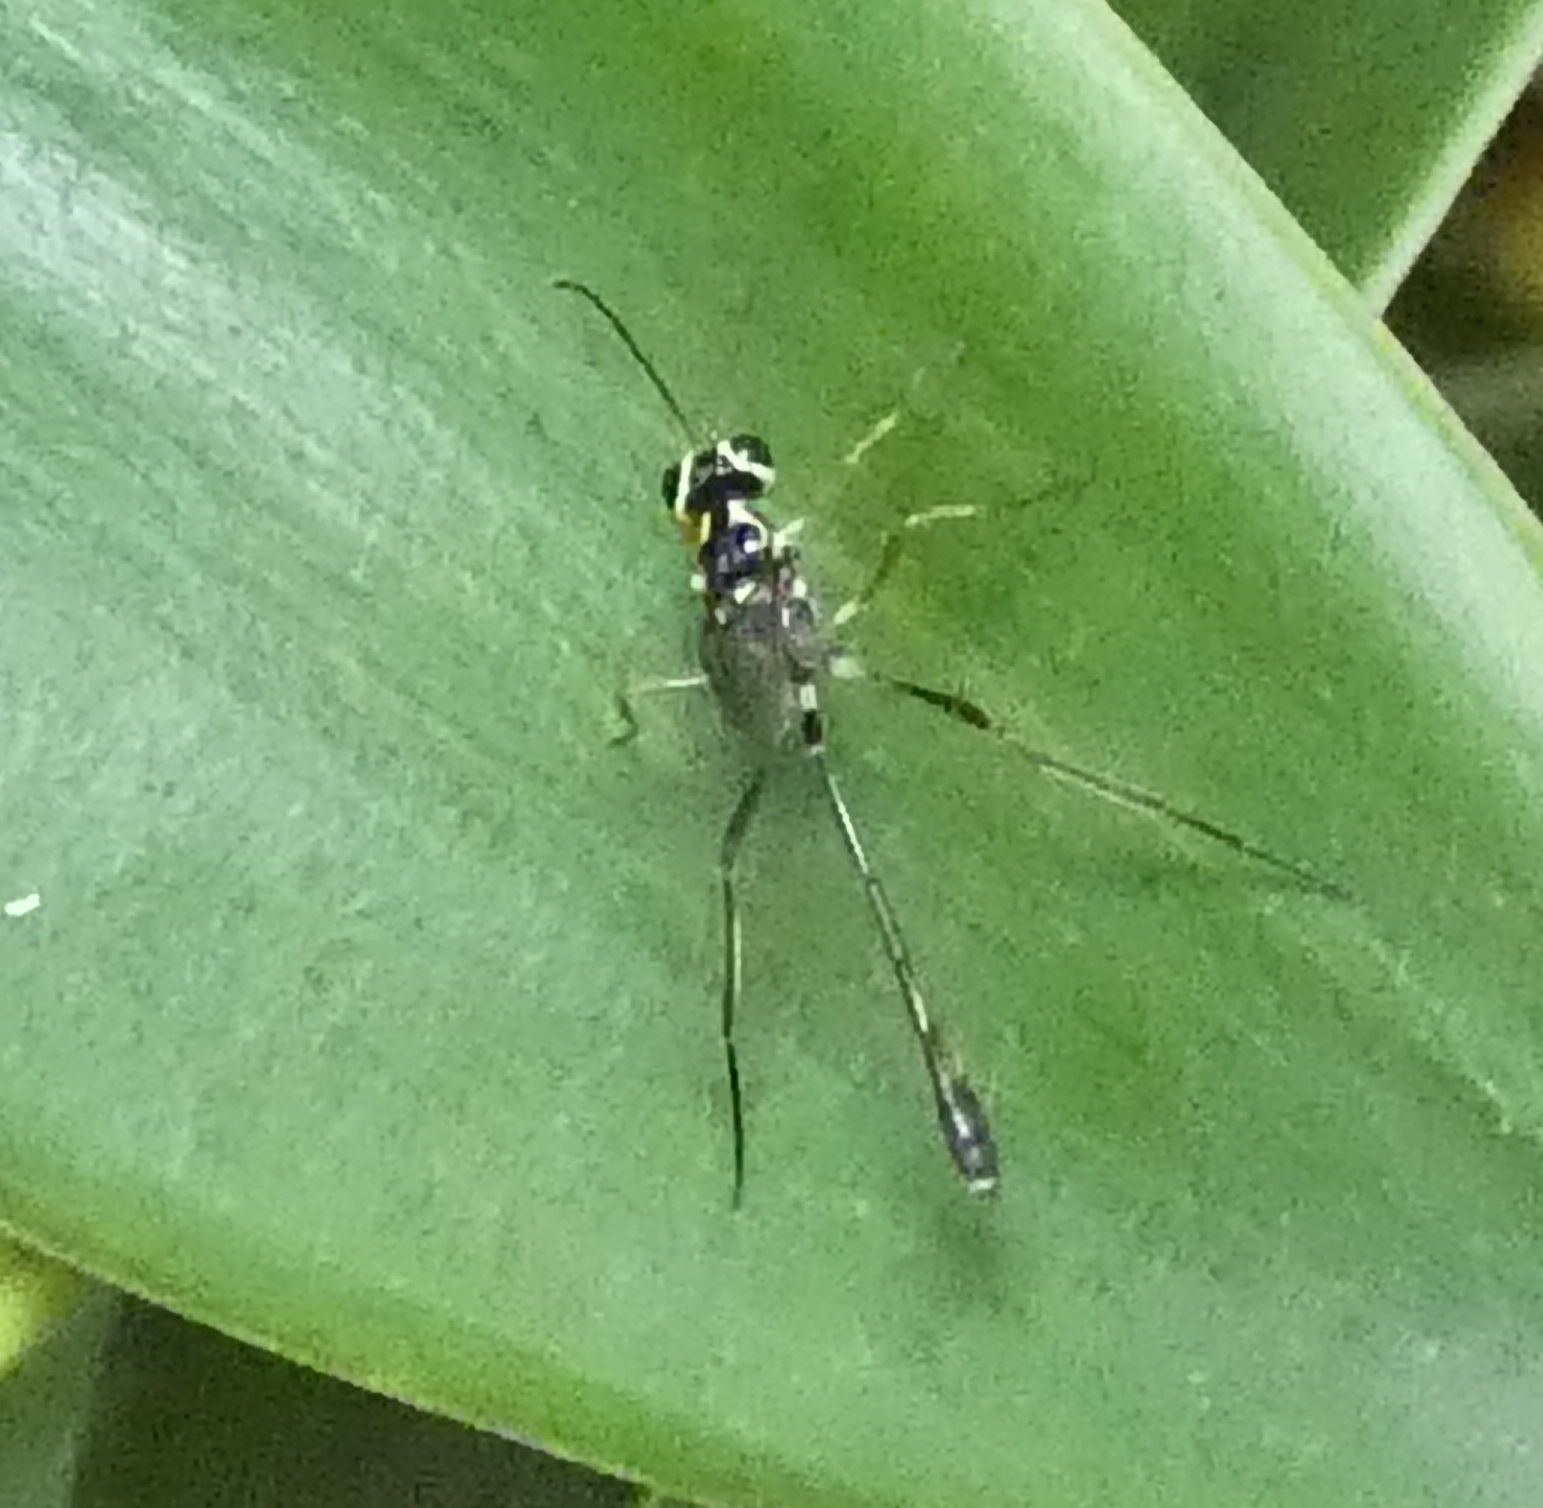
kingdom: Animalia
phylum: Arthropoda
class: Insecta
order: Hymenoptera
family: Ichneumonidae
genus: Anomalon
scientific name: Anomalon
